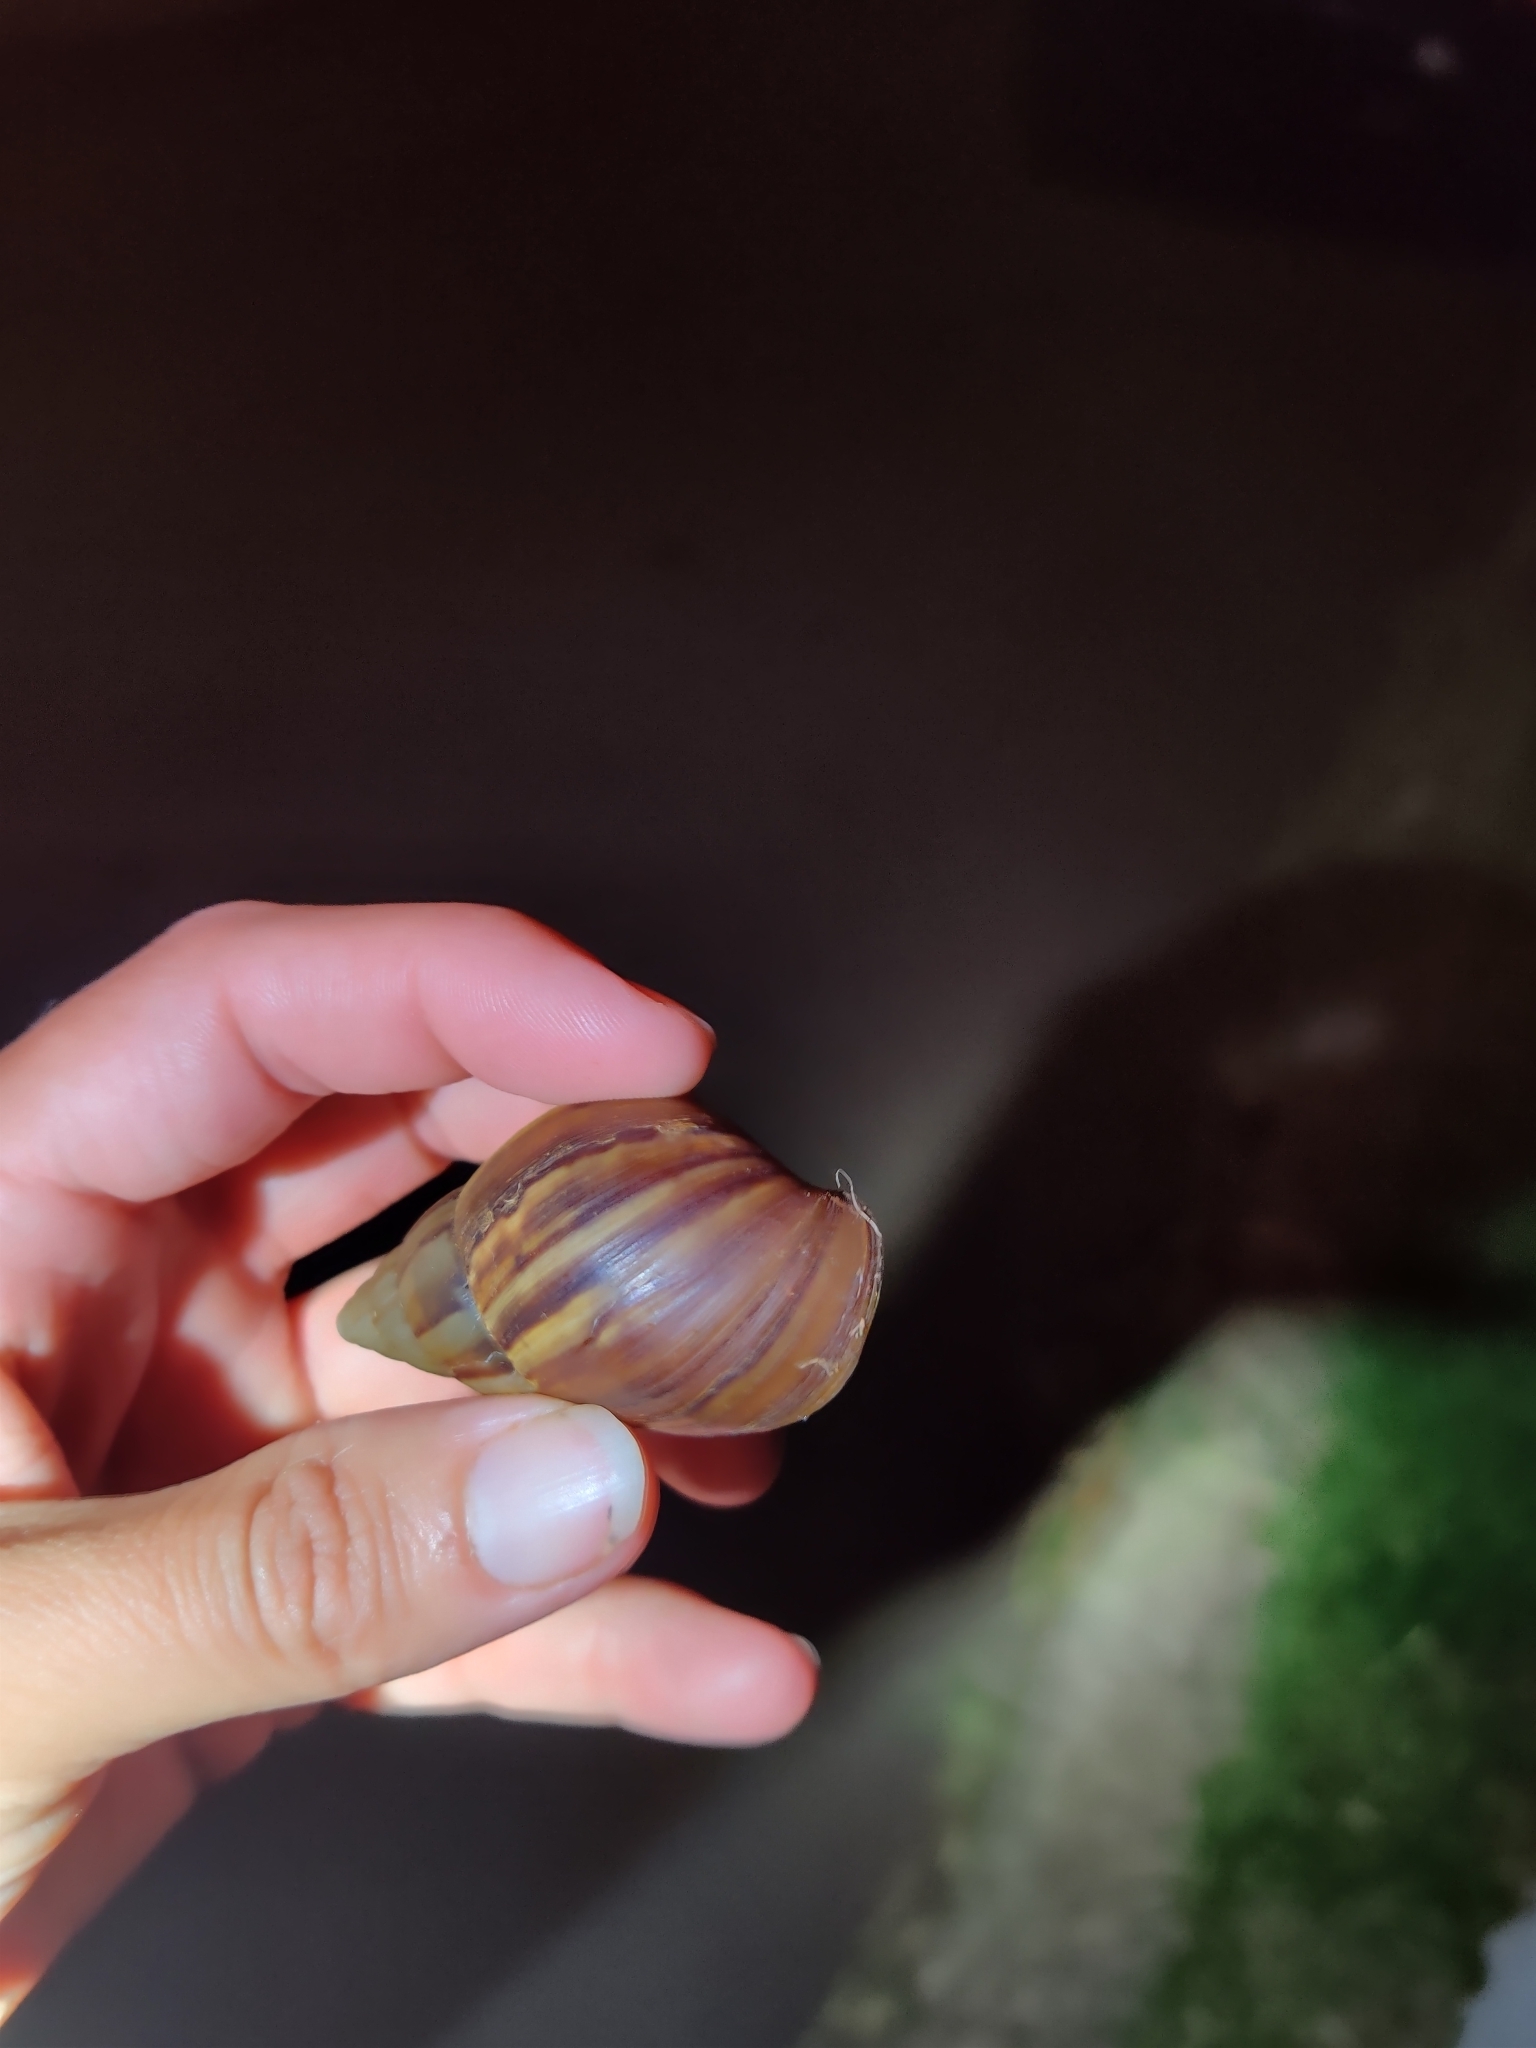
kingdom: Animalia
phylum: Mollusca
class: Gastropoda
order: Stylommatophora
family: Achatinidae
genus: Lissachatina
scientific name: Lissachatina fulica
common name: Giant african snail
